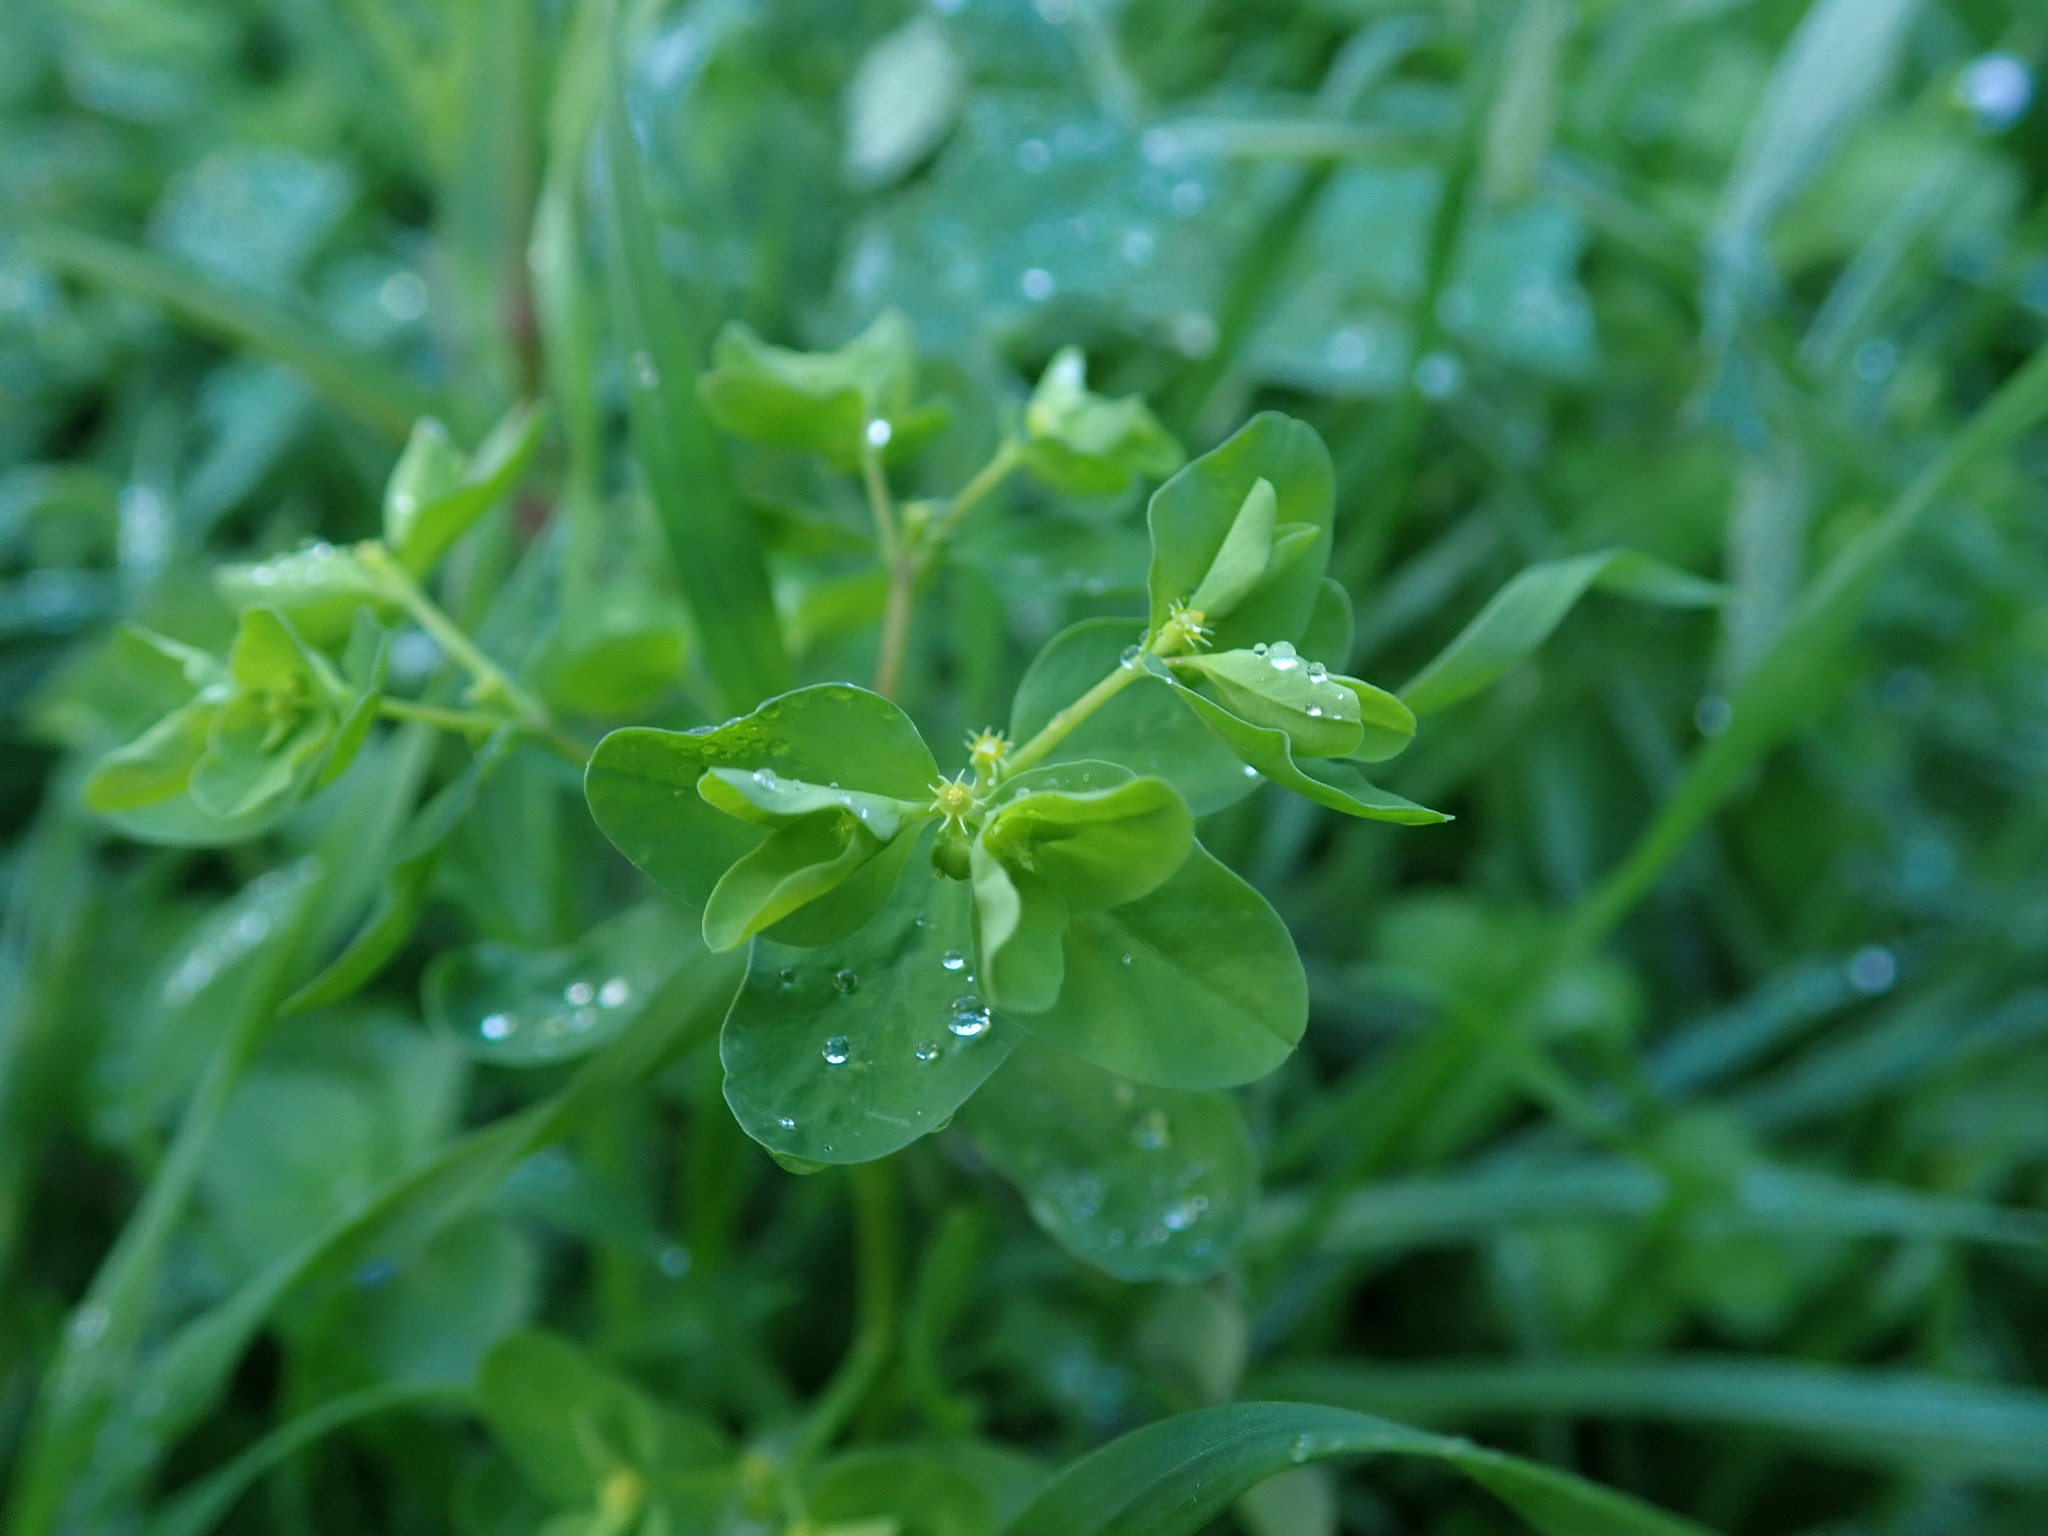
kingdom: Plantae
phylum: Tracheophyta
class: Magnoliopsida
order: Malpighiales
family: Euphorbiaceae
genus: Euphorbia
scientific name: Euphorbia peplus
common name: Petty spurge
